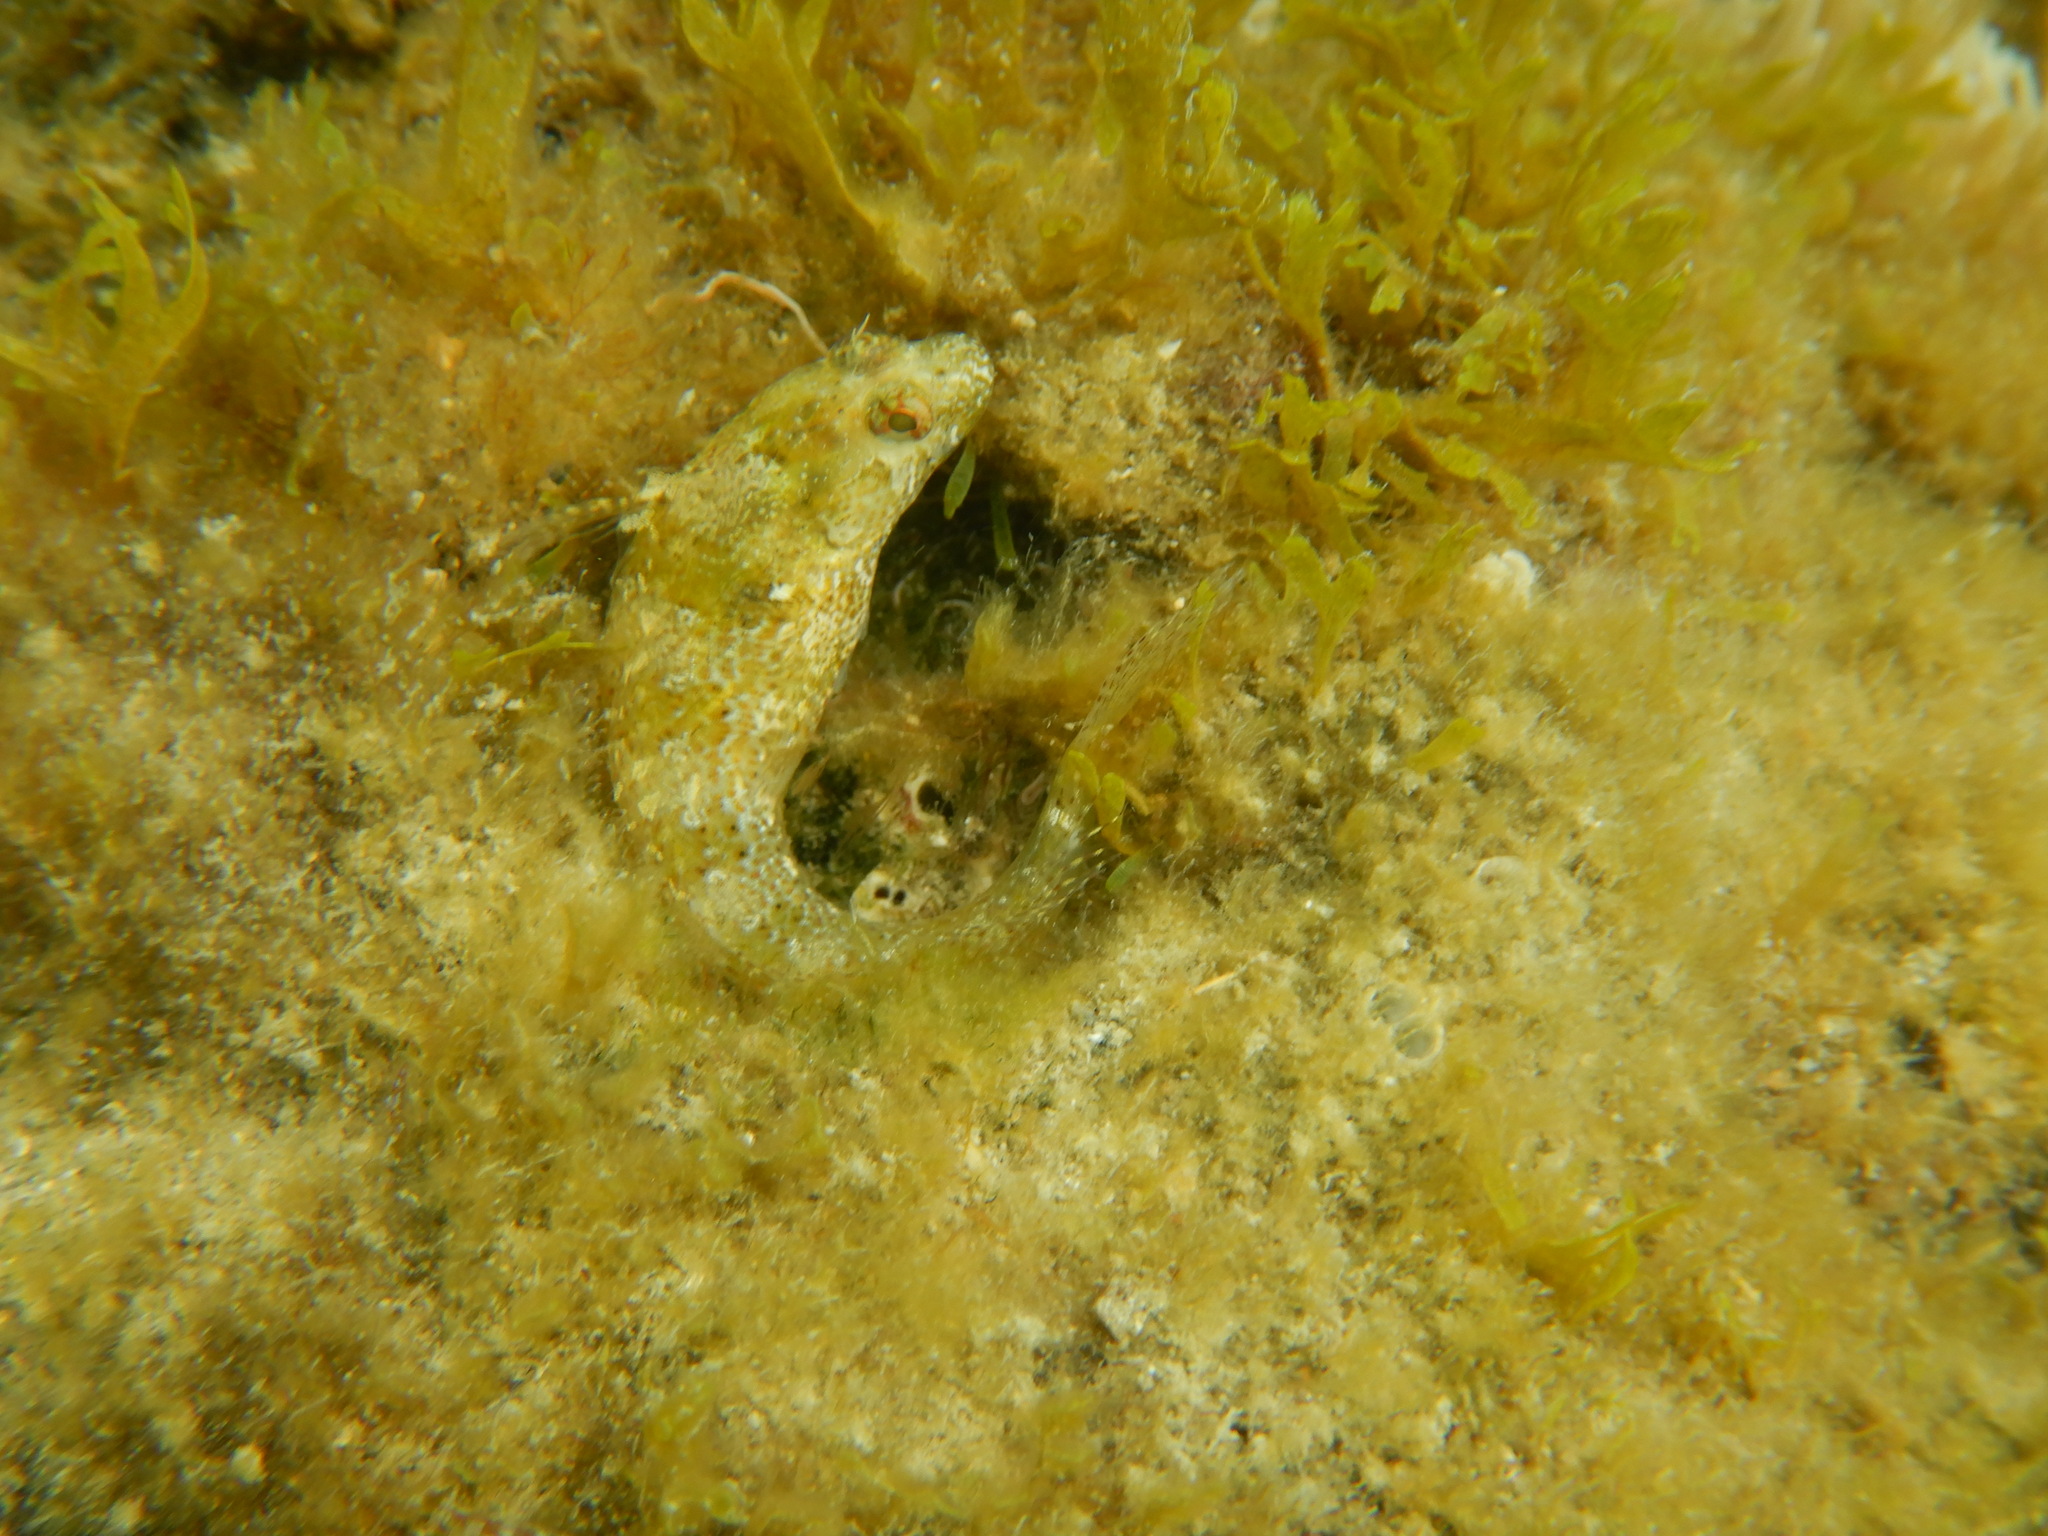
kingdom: Animalia
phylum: Chordata
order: Perciformes
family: Blenniidae
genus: Parablennius
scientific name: Parablennius incognitus
